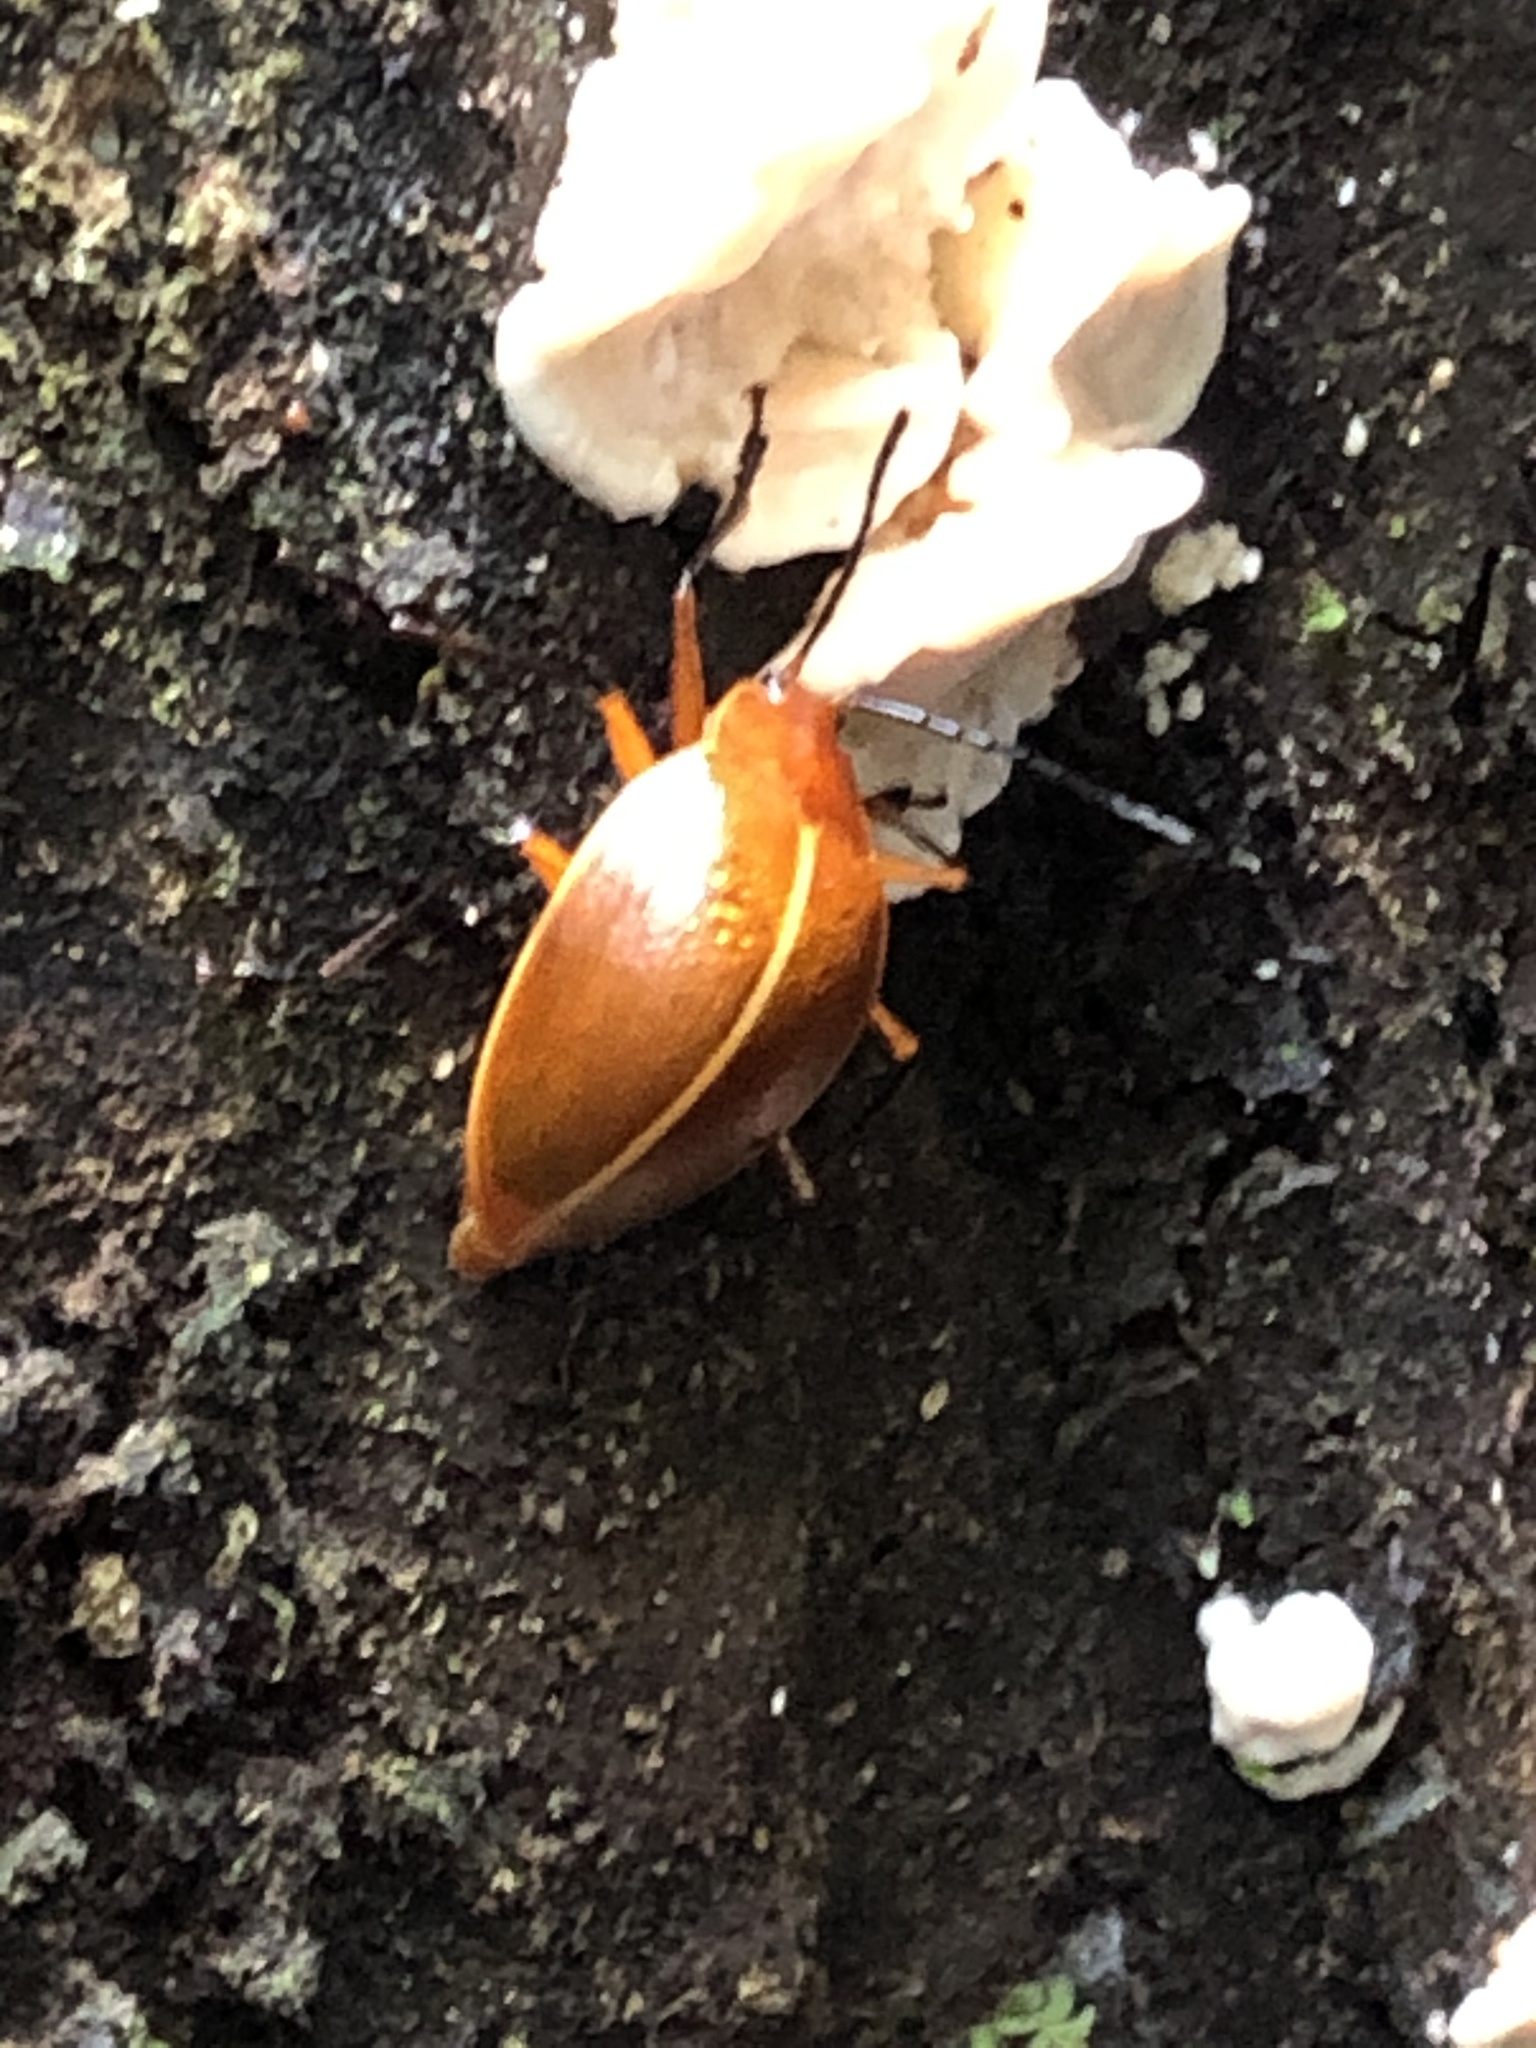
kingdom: Animalia
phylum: Arthropoda
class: Insecta
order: Coleoptera
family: Erotylidae
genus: Ellipticus
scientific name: Ellipticus
